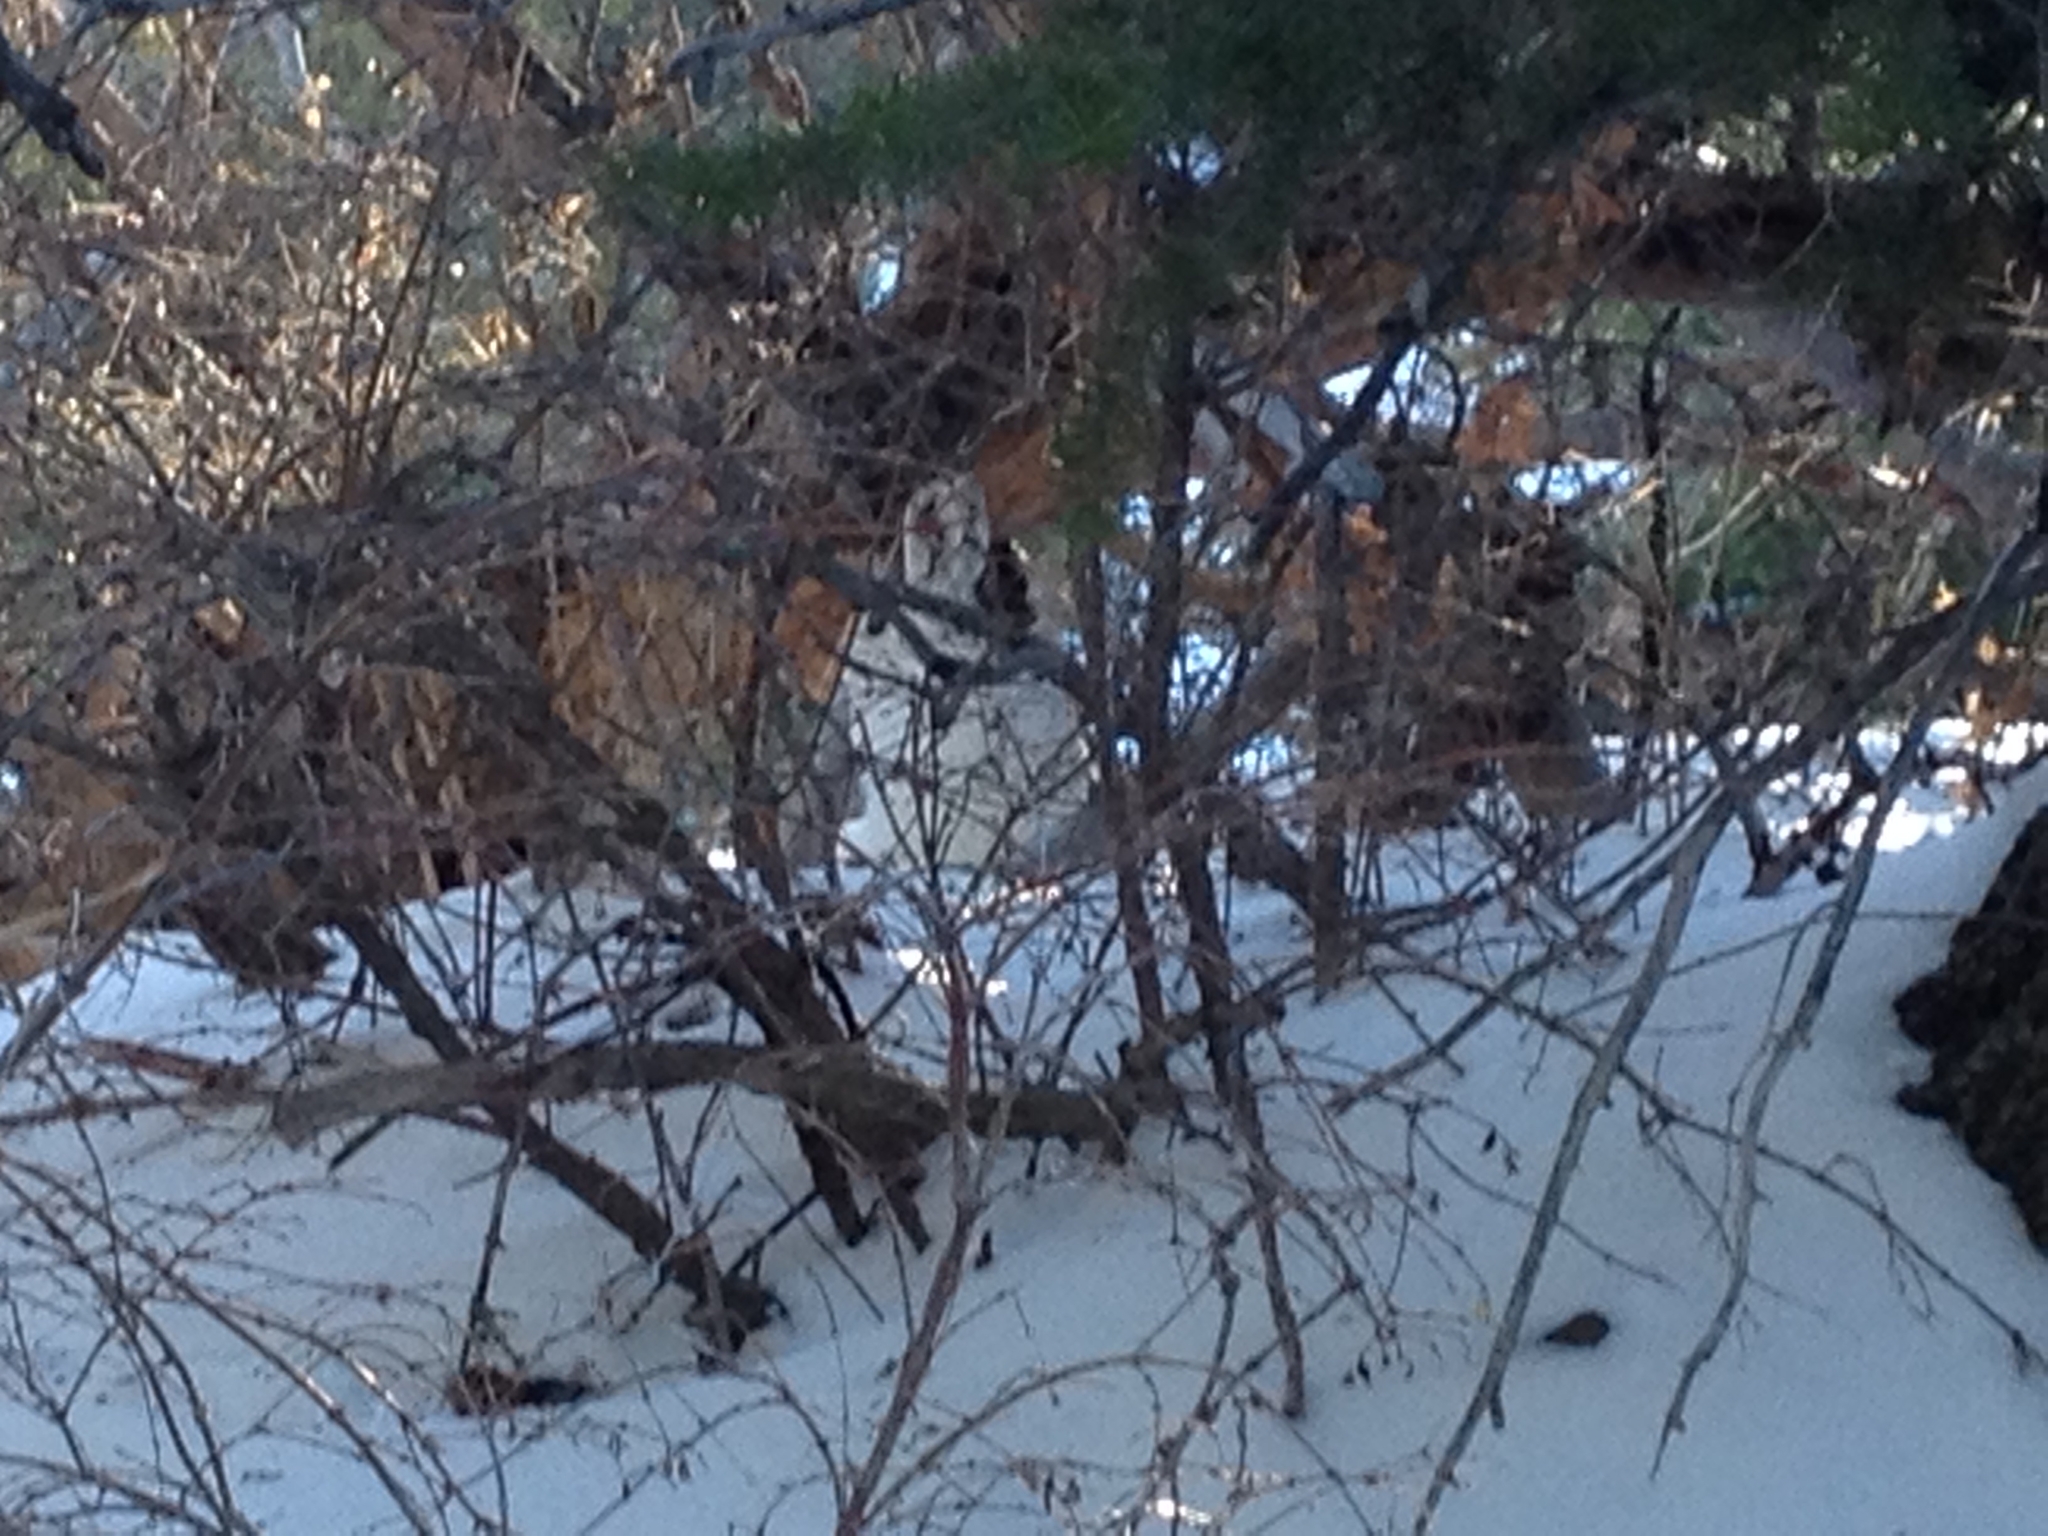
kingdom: Animalia
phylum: Chordata
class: Mammalia
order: Lagomorpha
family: Leporidae
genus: Lepus
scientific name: Lepus americanus
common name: Snowshoe hare
